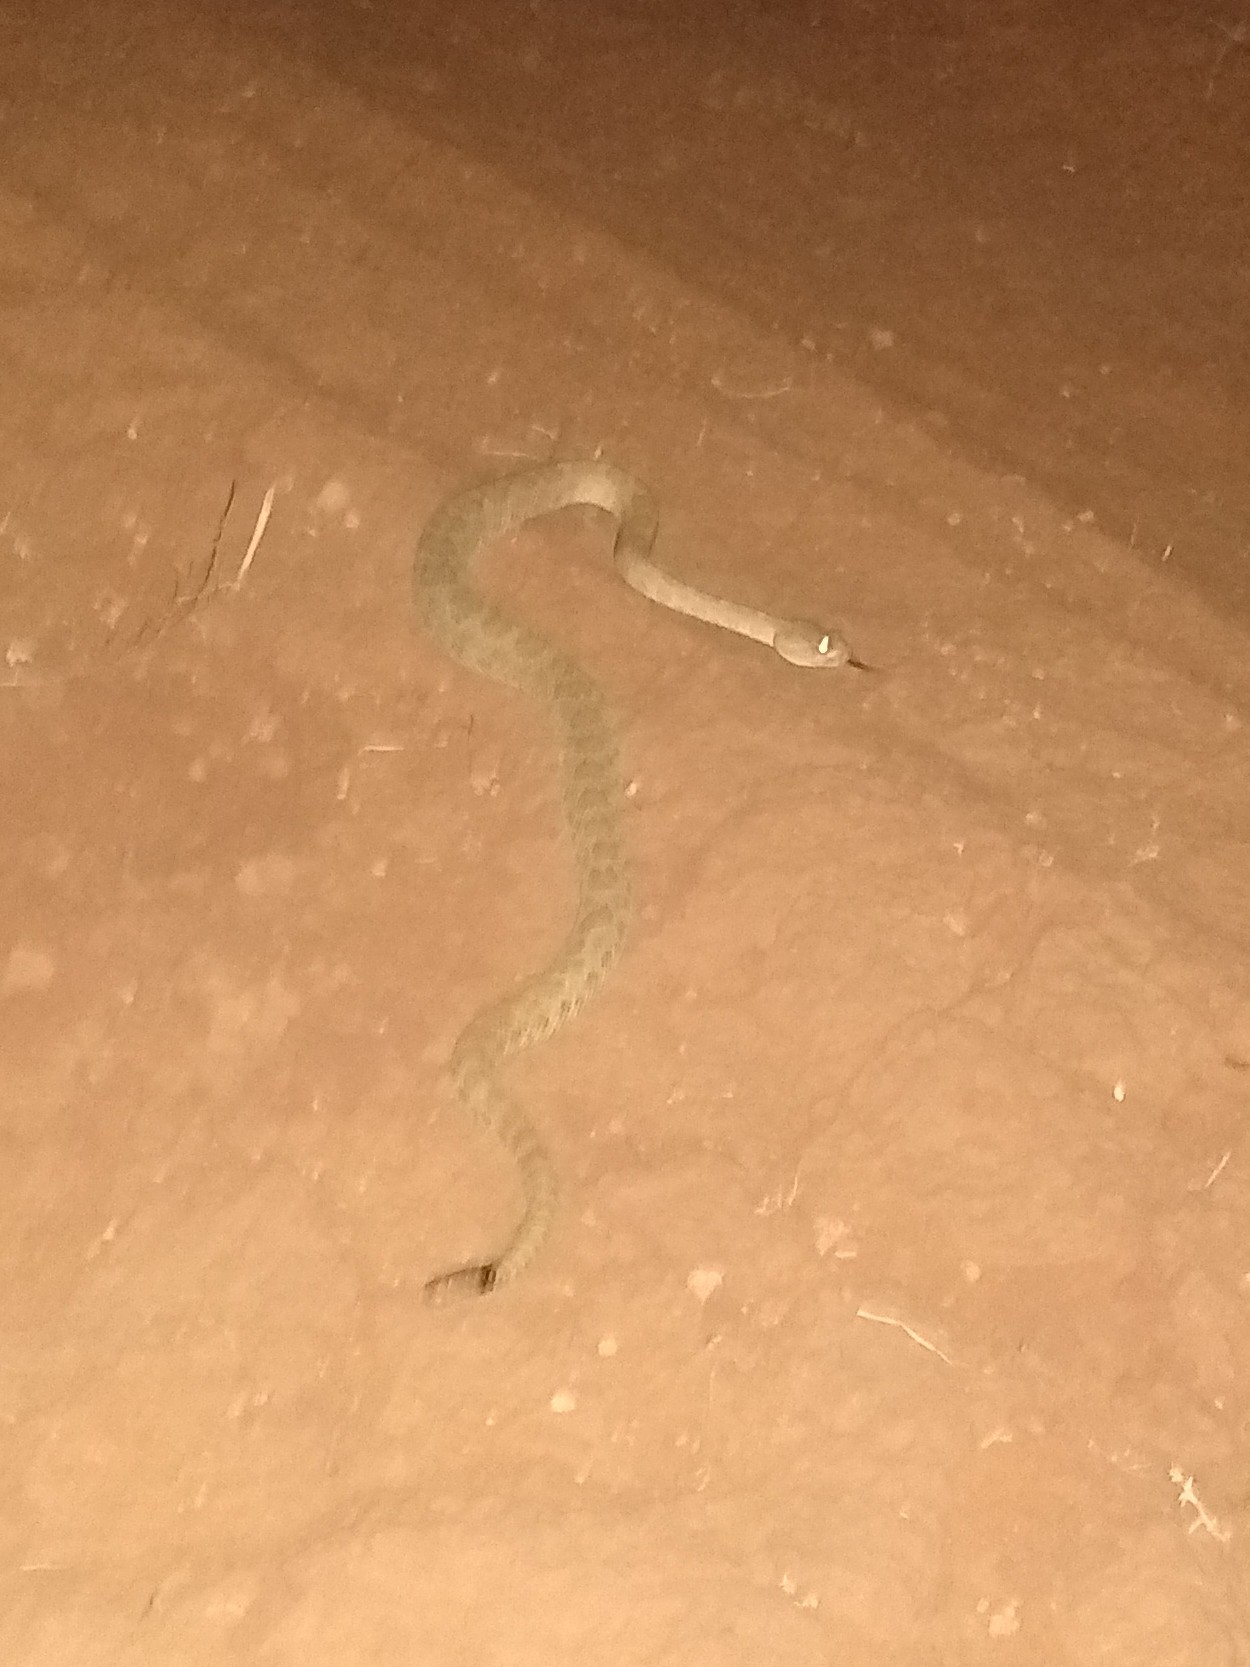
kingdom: Animalia
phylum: Chordata
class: Squamata
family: Viperidae
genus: Crotalus
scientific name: Crotalus viridis
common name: Prairie rattlesnake
